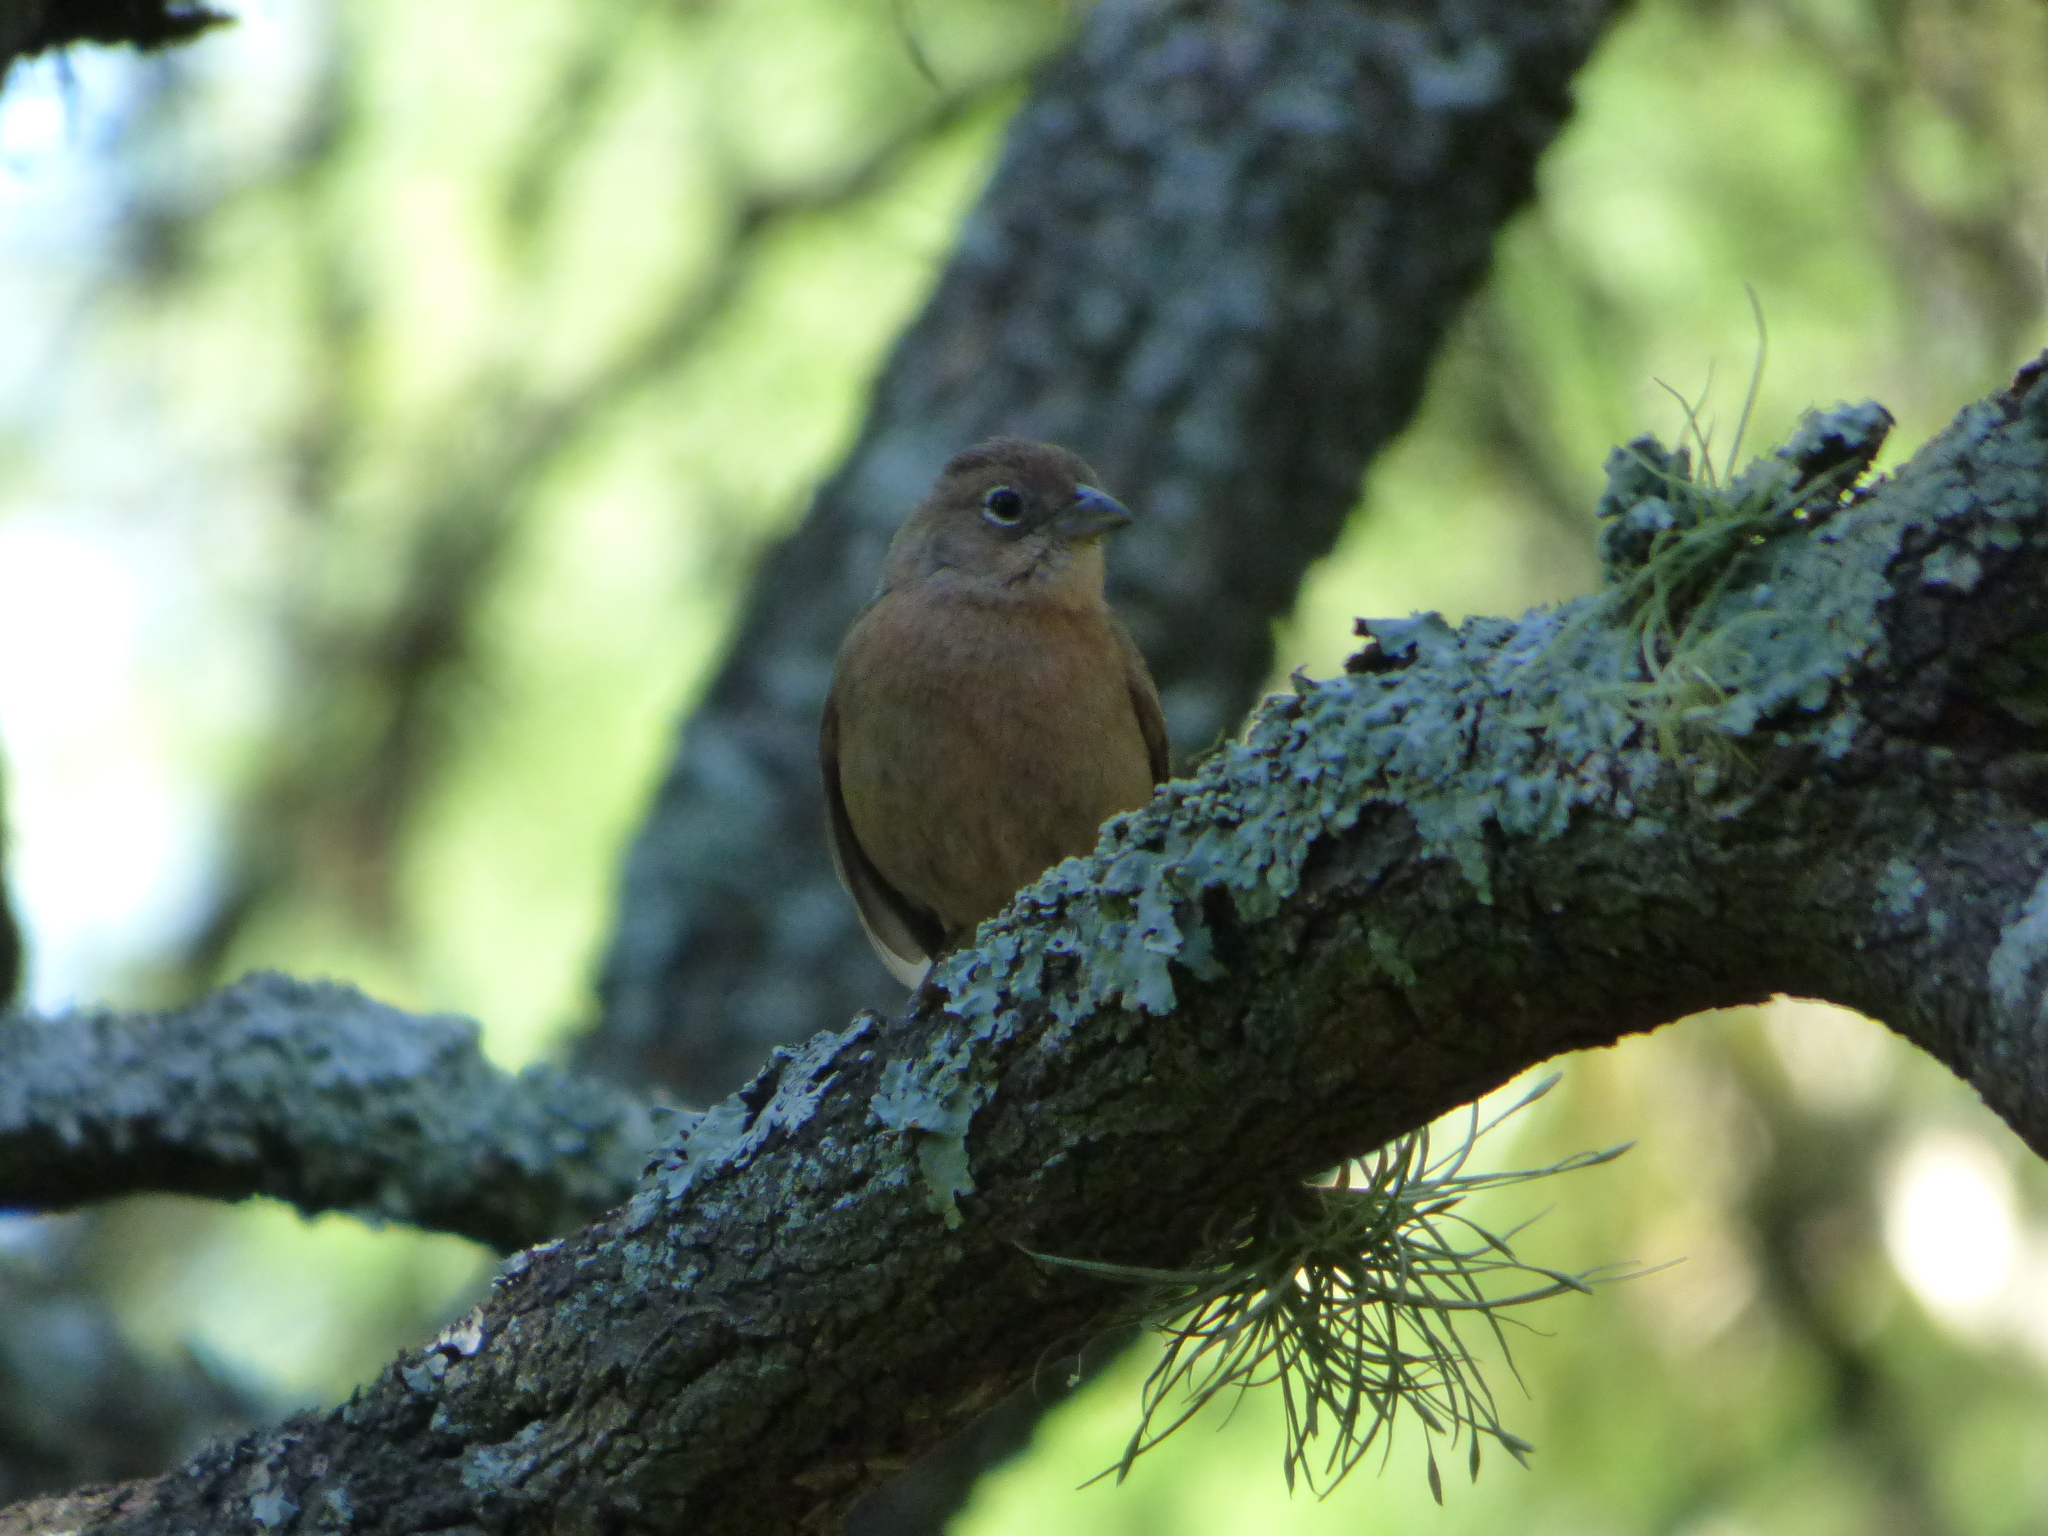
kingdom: Animalia
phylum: Chordata
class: Aves
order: Passeriformes
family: Thraupidae
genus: Coryphospingus
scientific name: Coryphospingus cucullatus
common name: Red pileated finch
